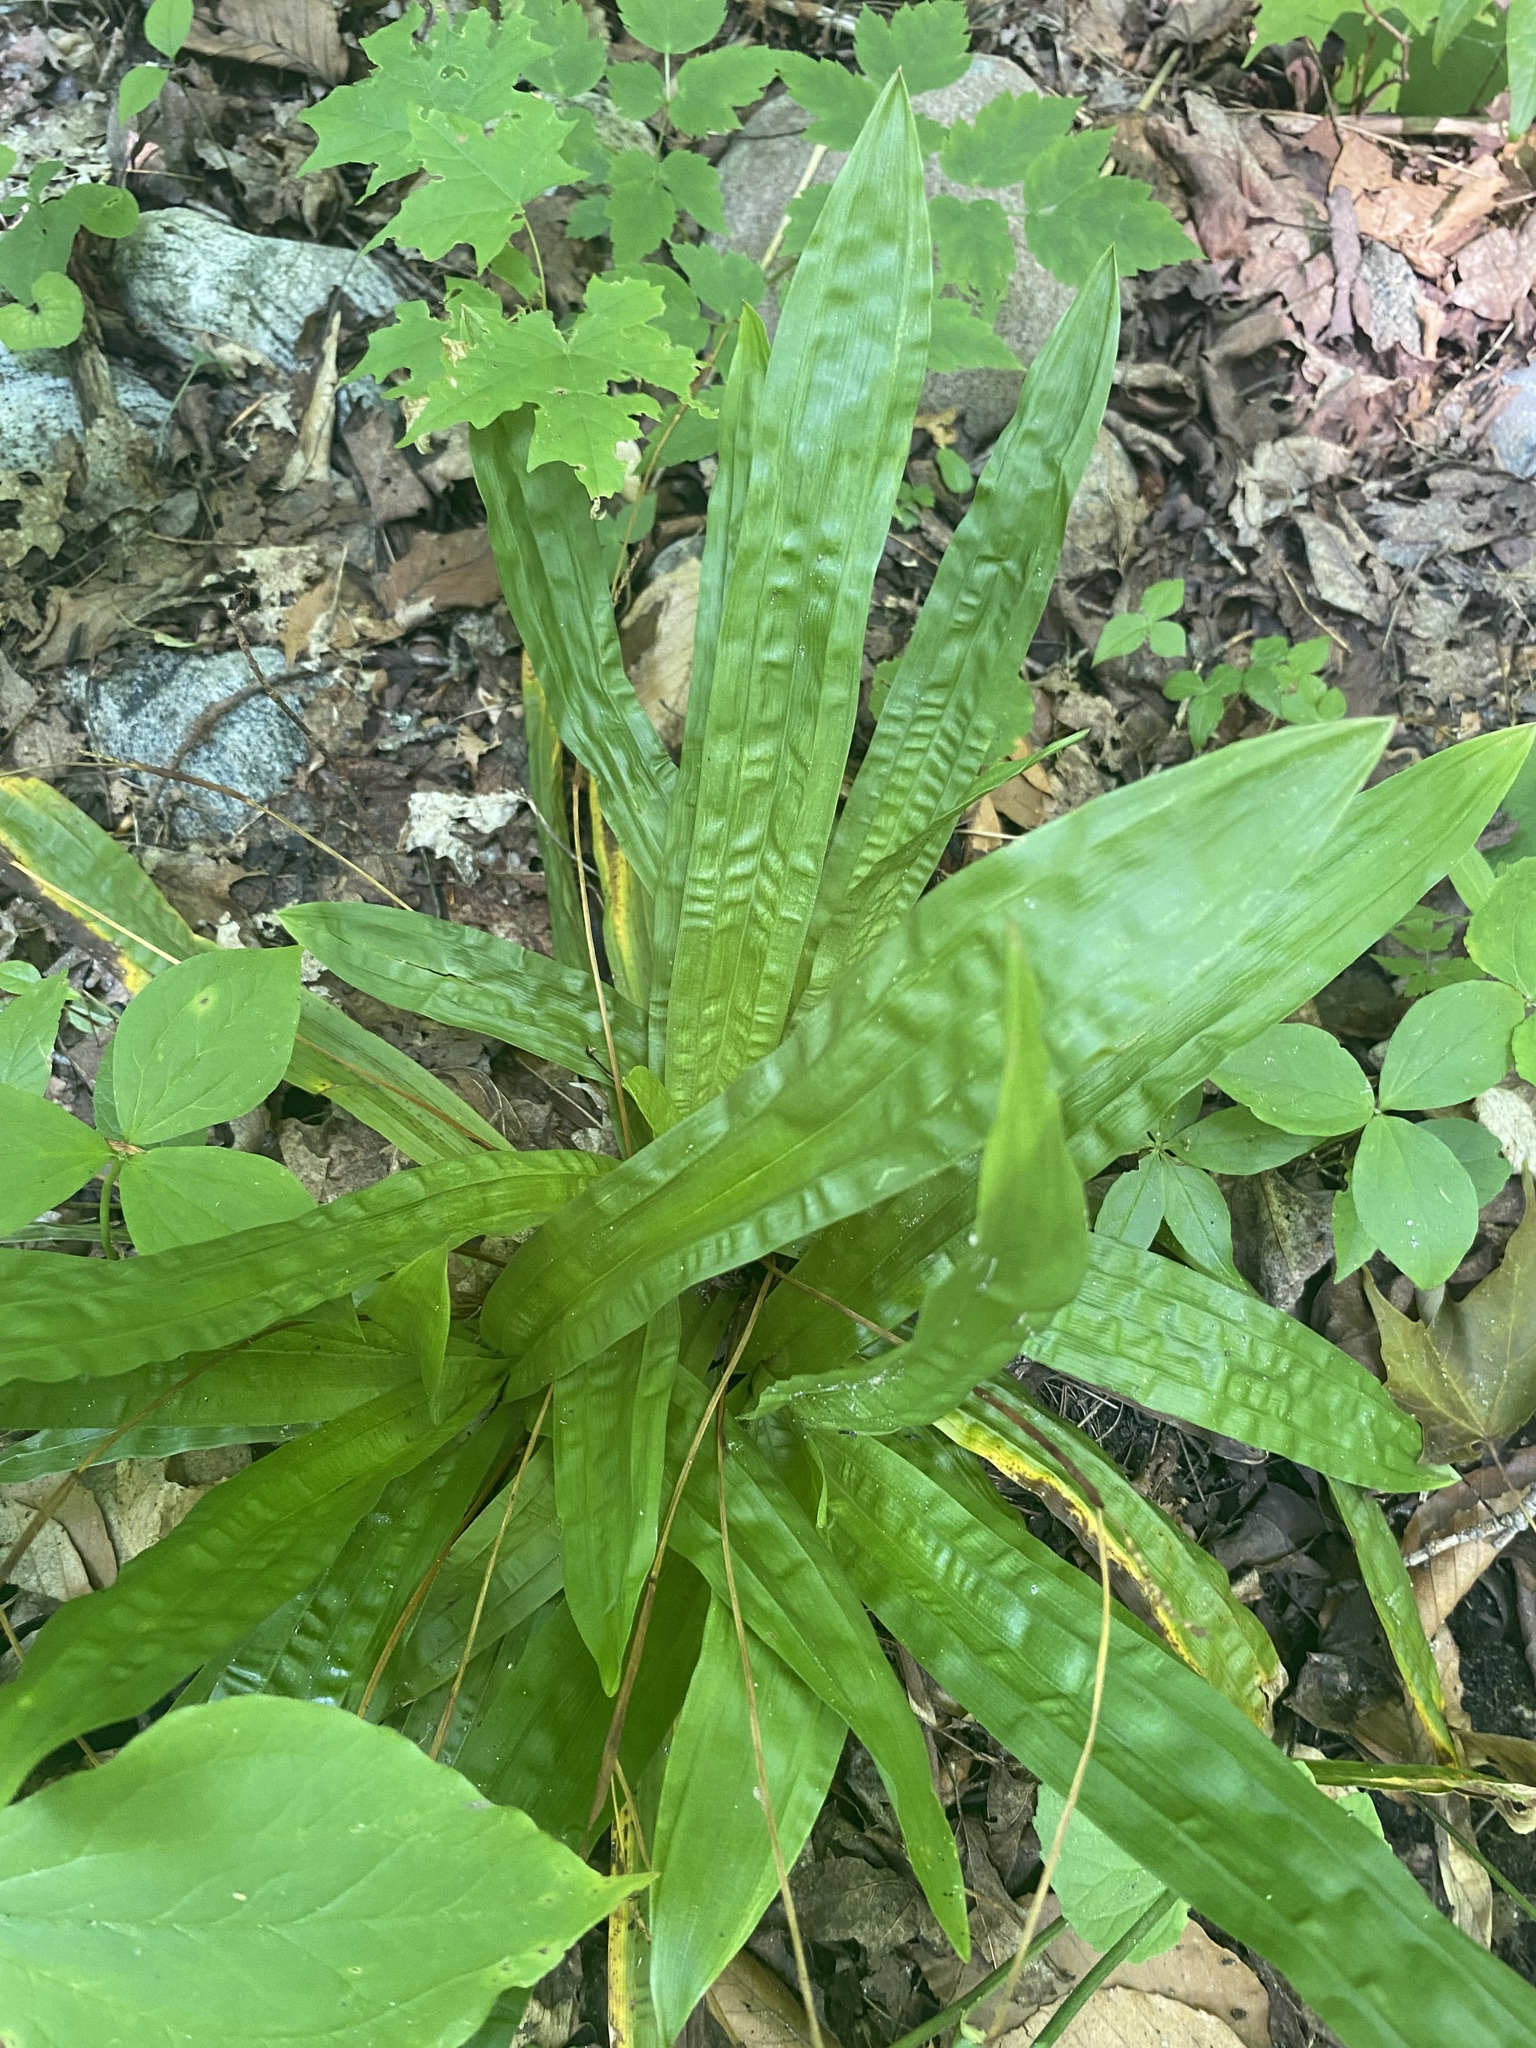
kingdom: Plantae
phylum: Tracheophyta
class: Liliopsida
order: Poales
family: Cyperaceae
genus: Carex
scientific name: Carex plantaginea
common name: Plantain-leaved sedge
